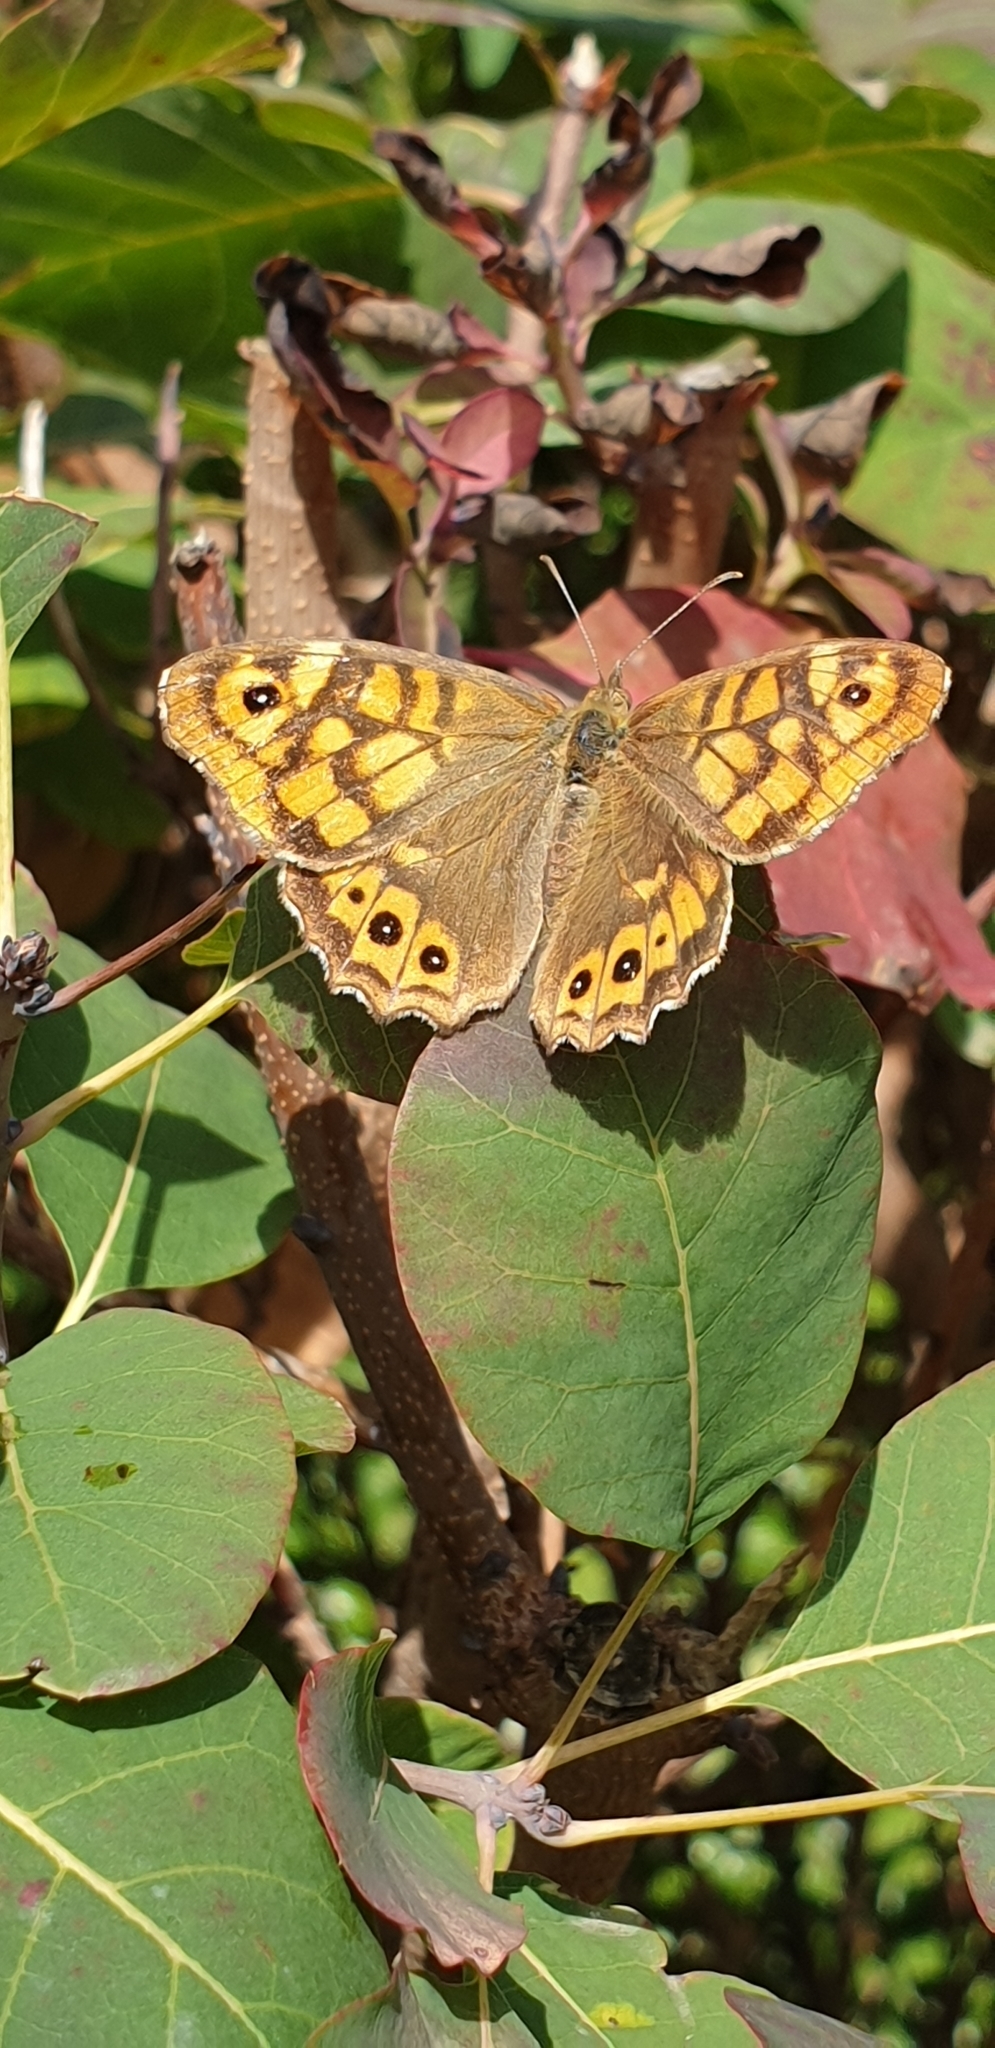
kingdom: Animalia
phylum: Arthropoda
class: Insecta
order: Lepidoptera
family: Nymphalidae
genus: Pararge
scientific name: Pararge aegeria
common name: Speckled wood
